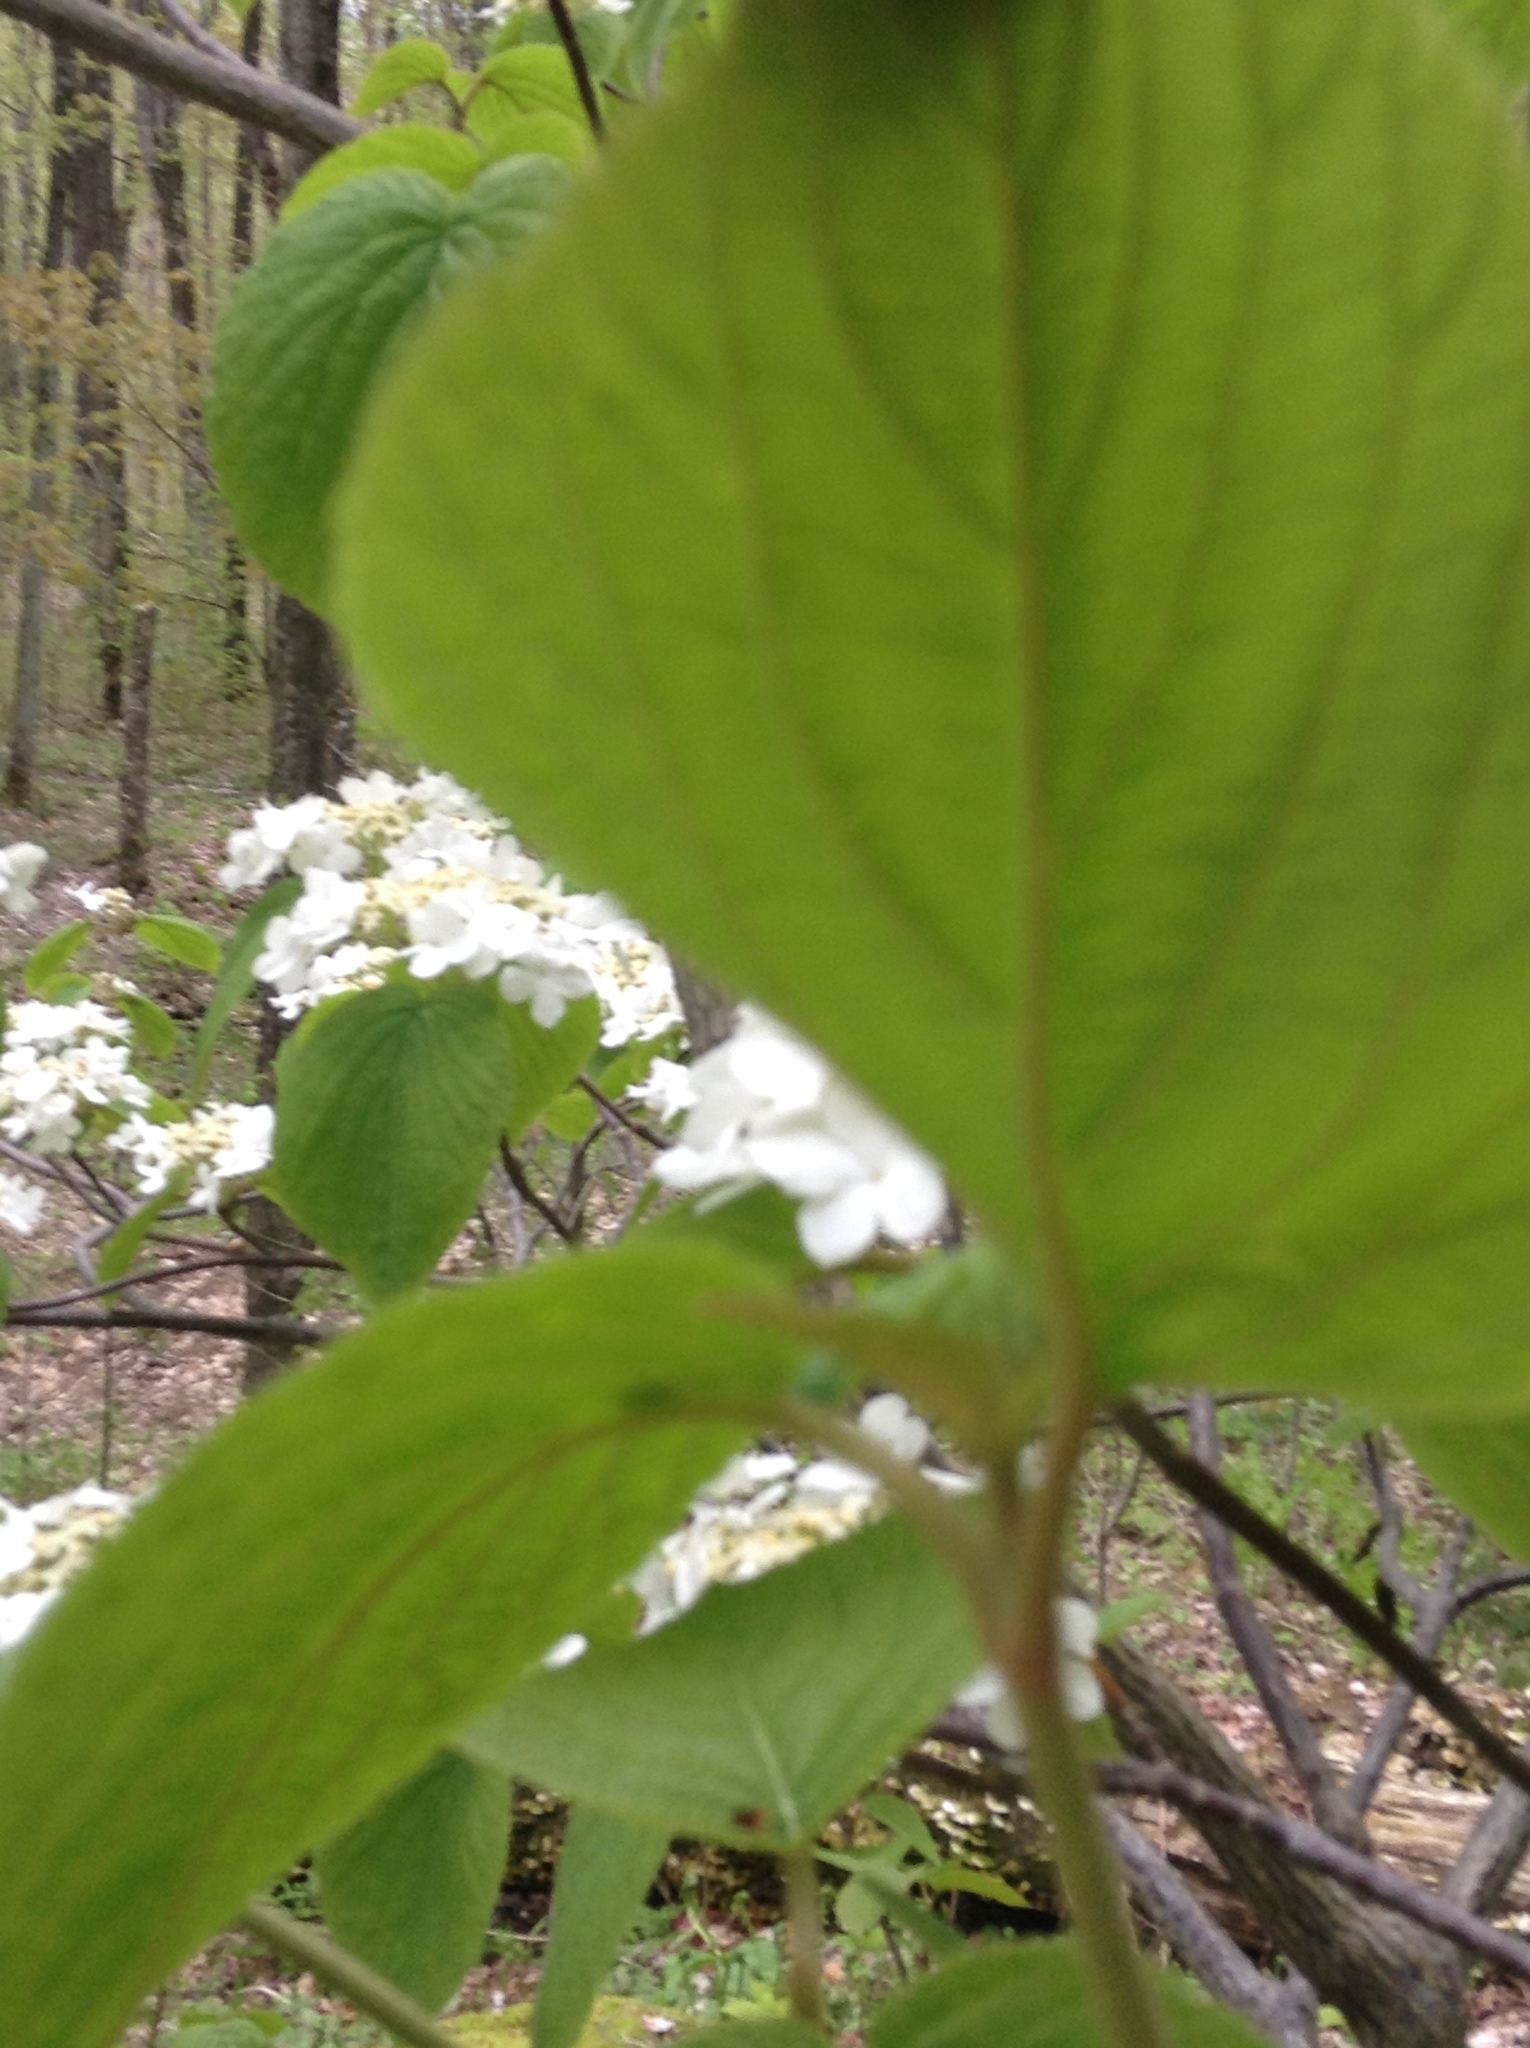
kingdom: Plantae
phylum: Tracheophyta
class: Magnoliopsida
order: Dipsacales
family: Viburnaceae
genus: Viburnum
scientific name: Viburnum lantanoides
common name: Hobblebush
